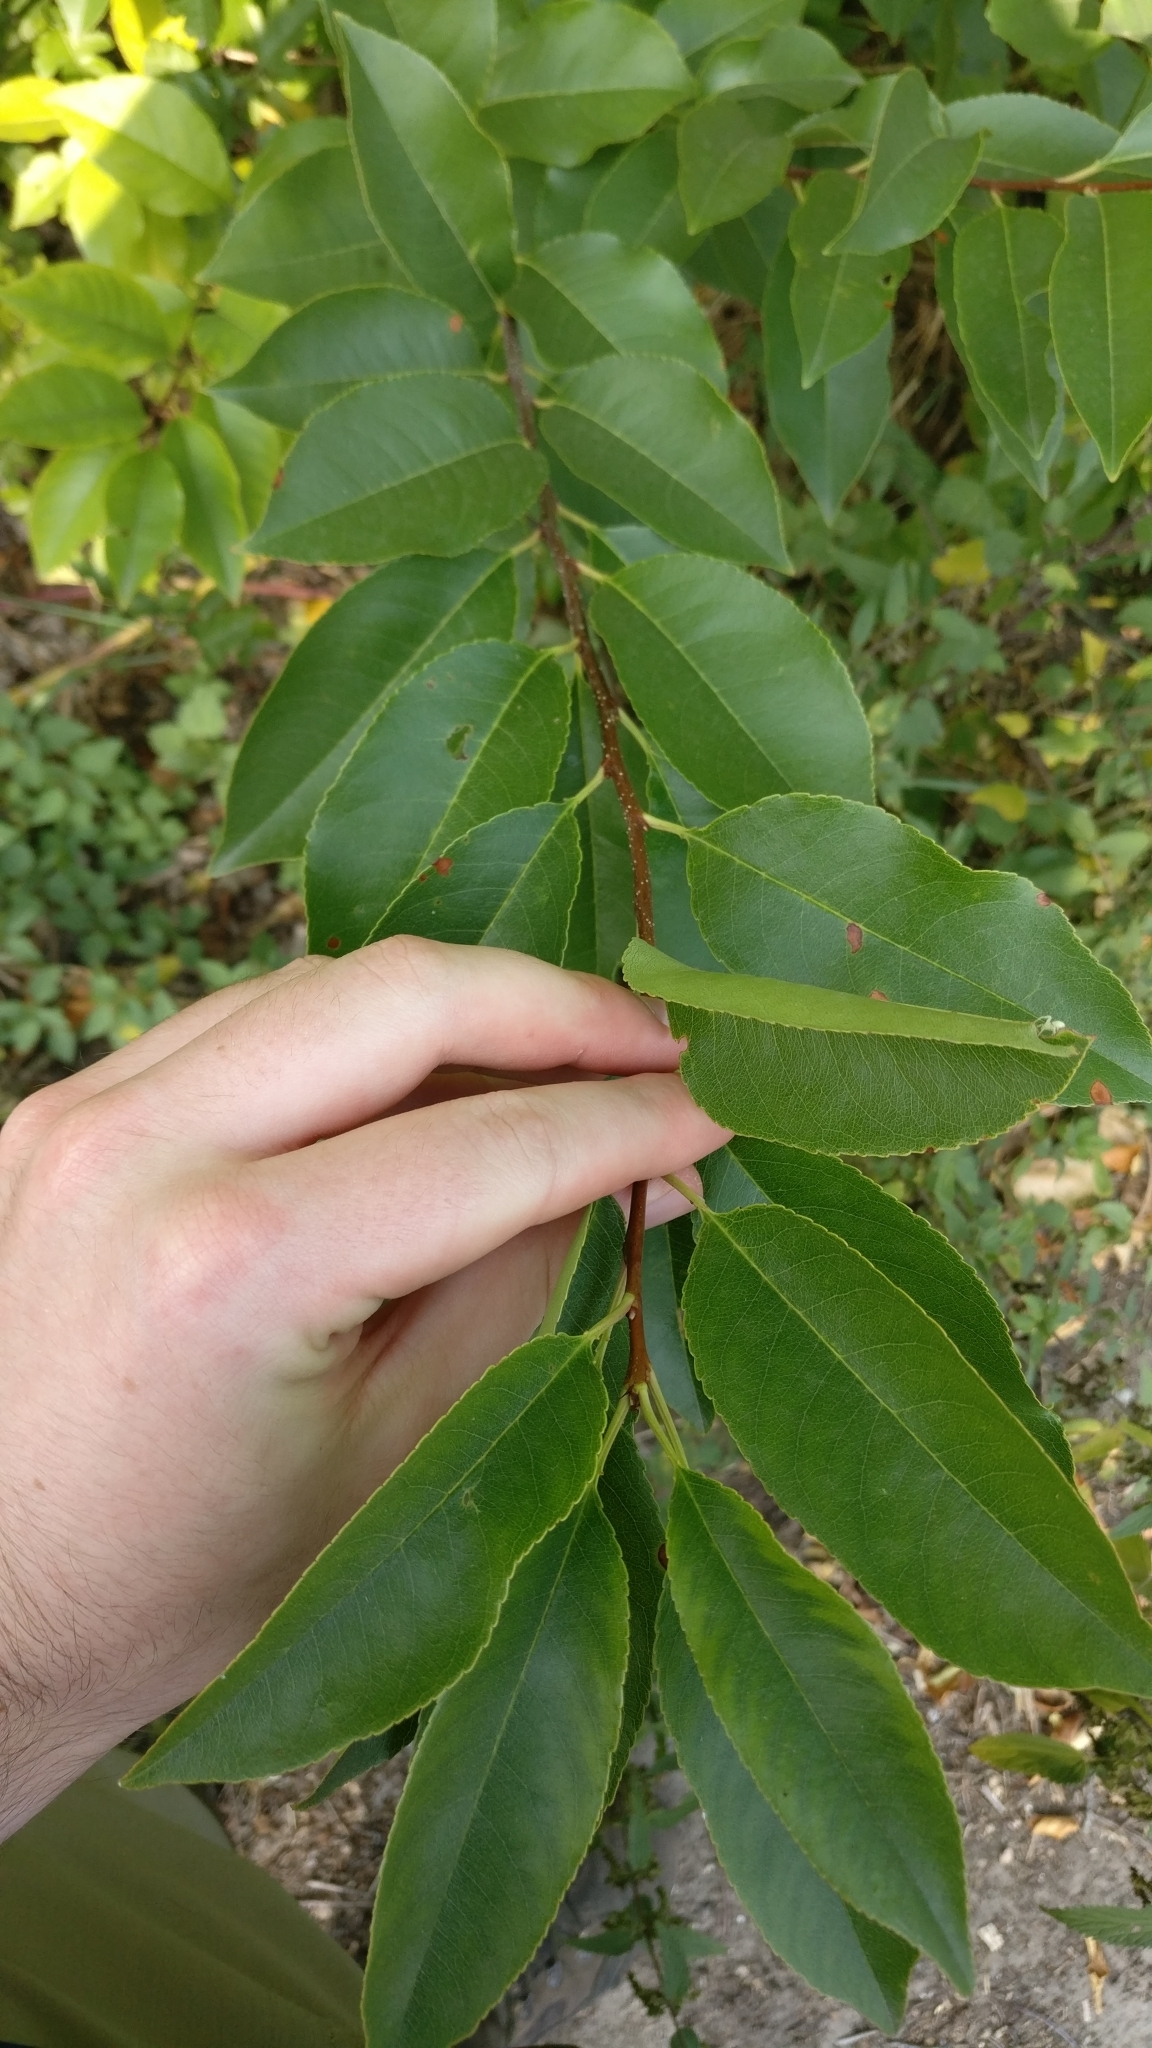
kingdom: Plantae
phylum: Tracheophyta
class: Magnoliopsida
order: Rosales
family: Rosaceae
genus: Prunus
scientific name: Prunus serotina
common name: Black cherry
